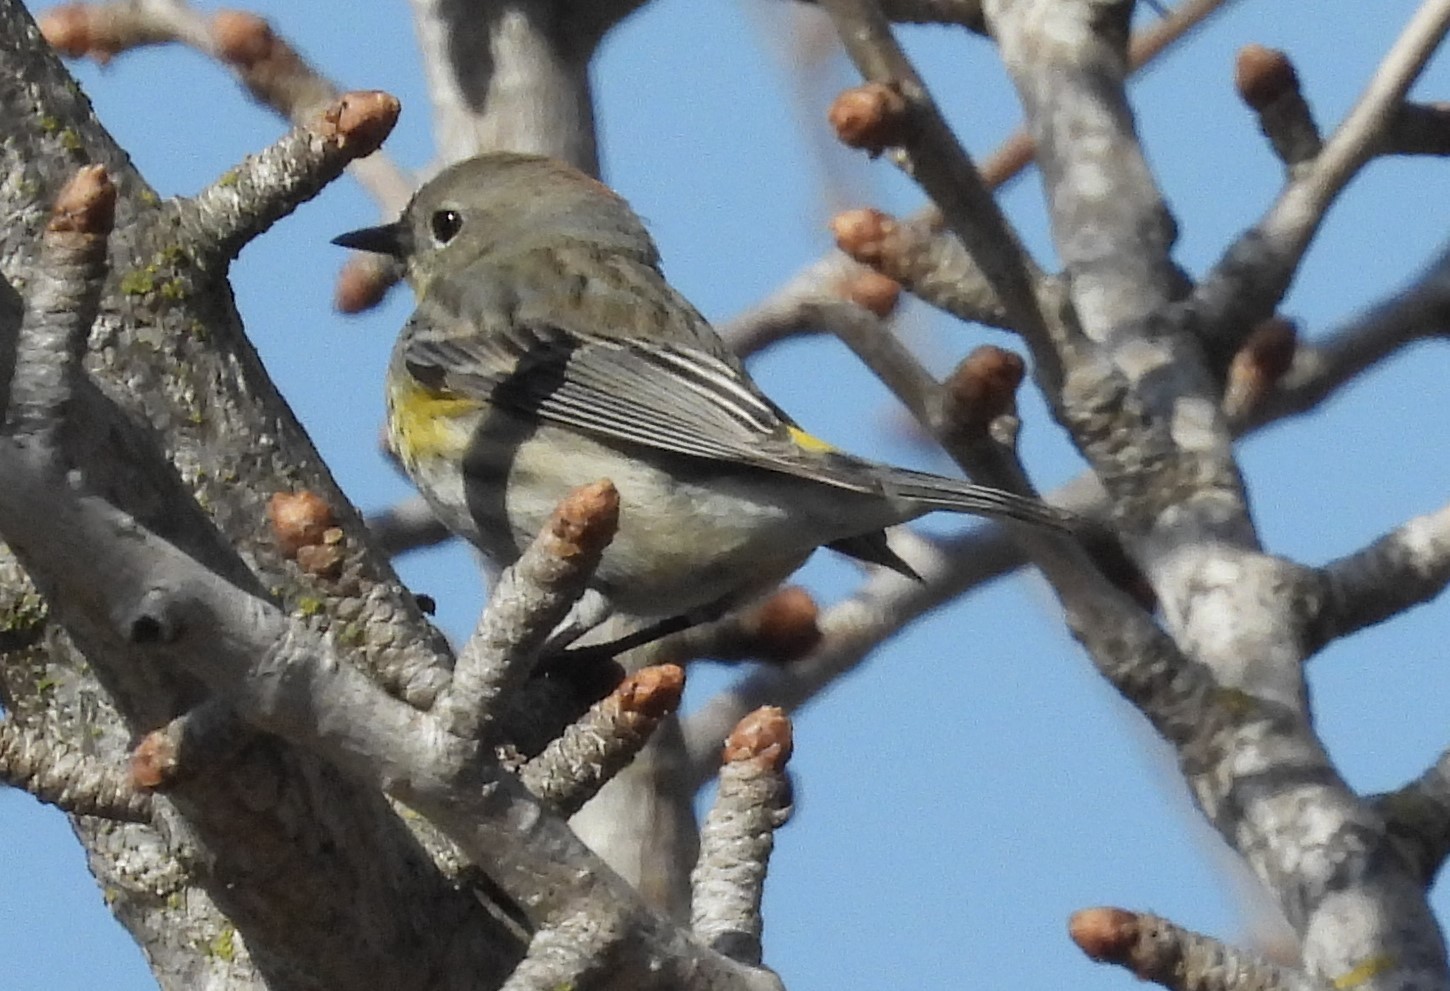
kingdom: Animalia
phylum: Chordata
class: Aves
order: Passeriformes
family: Parulidae
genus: Setophaga
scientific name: Setophaga coronata
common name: Myrtle warbler
